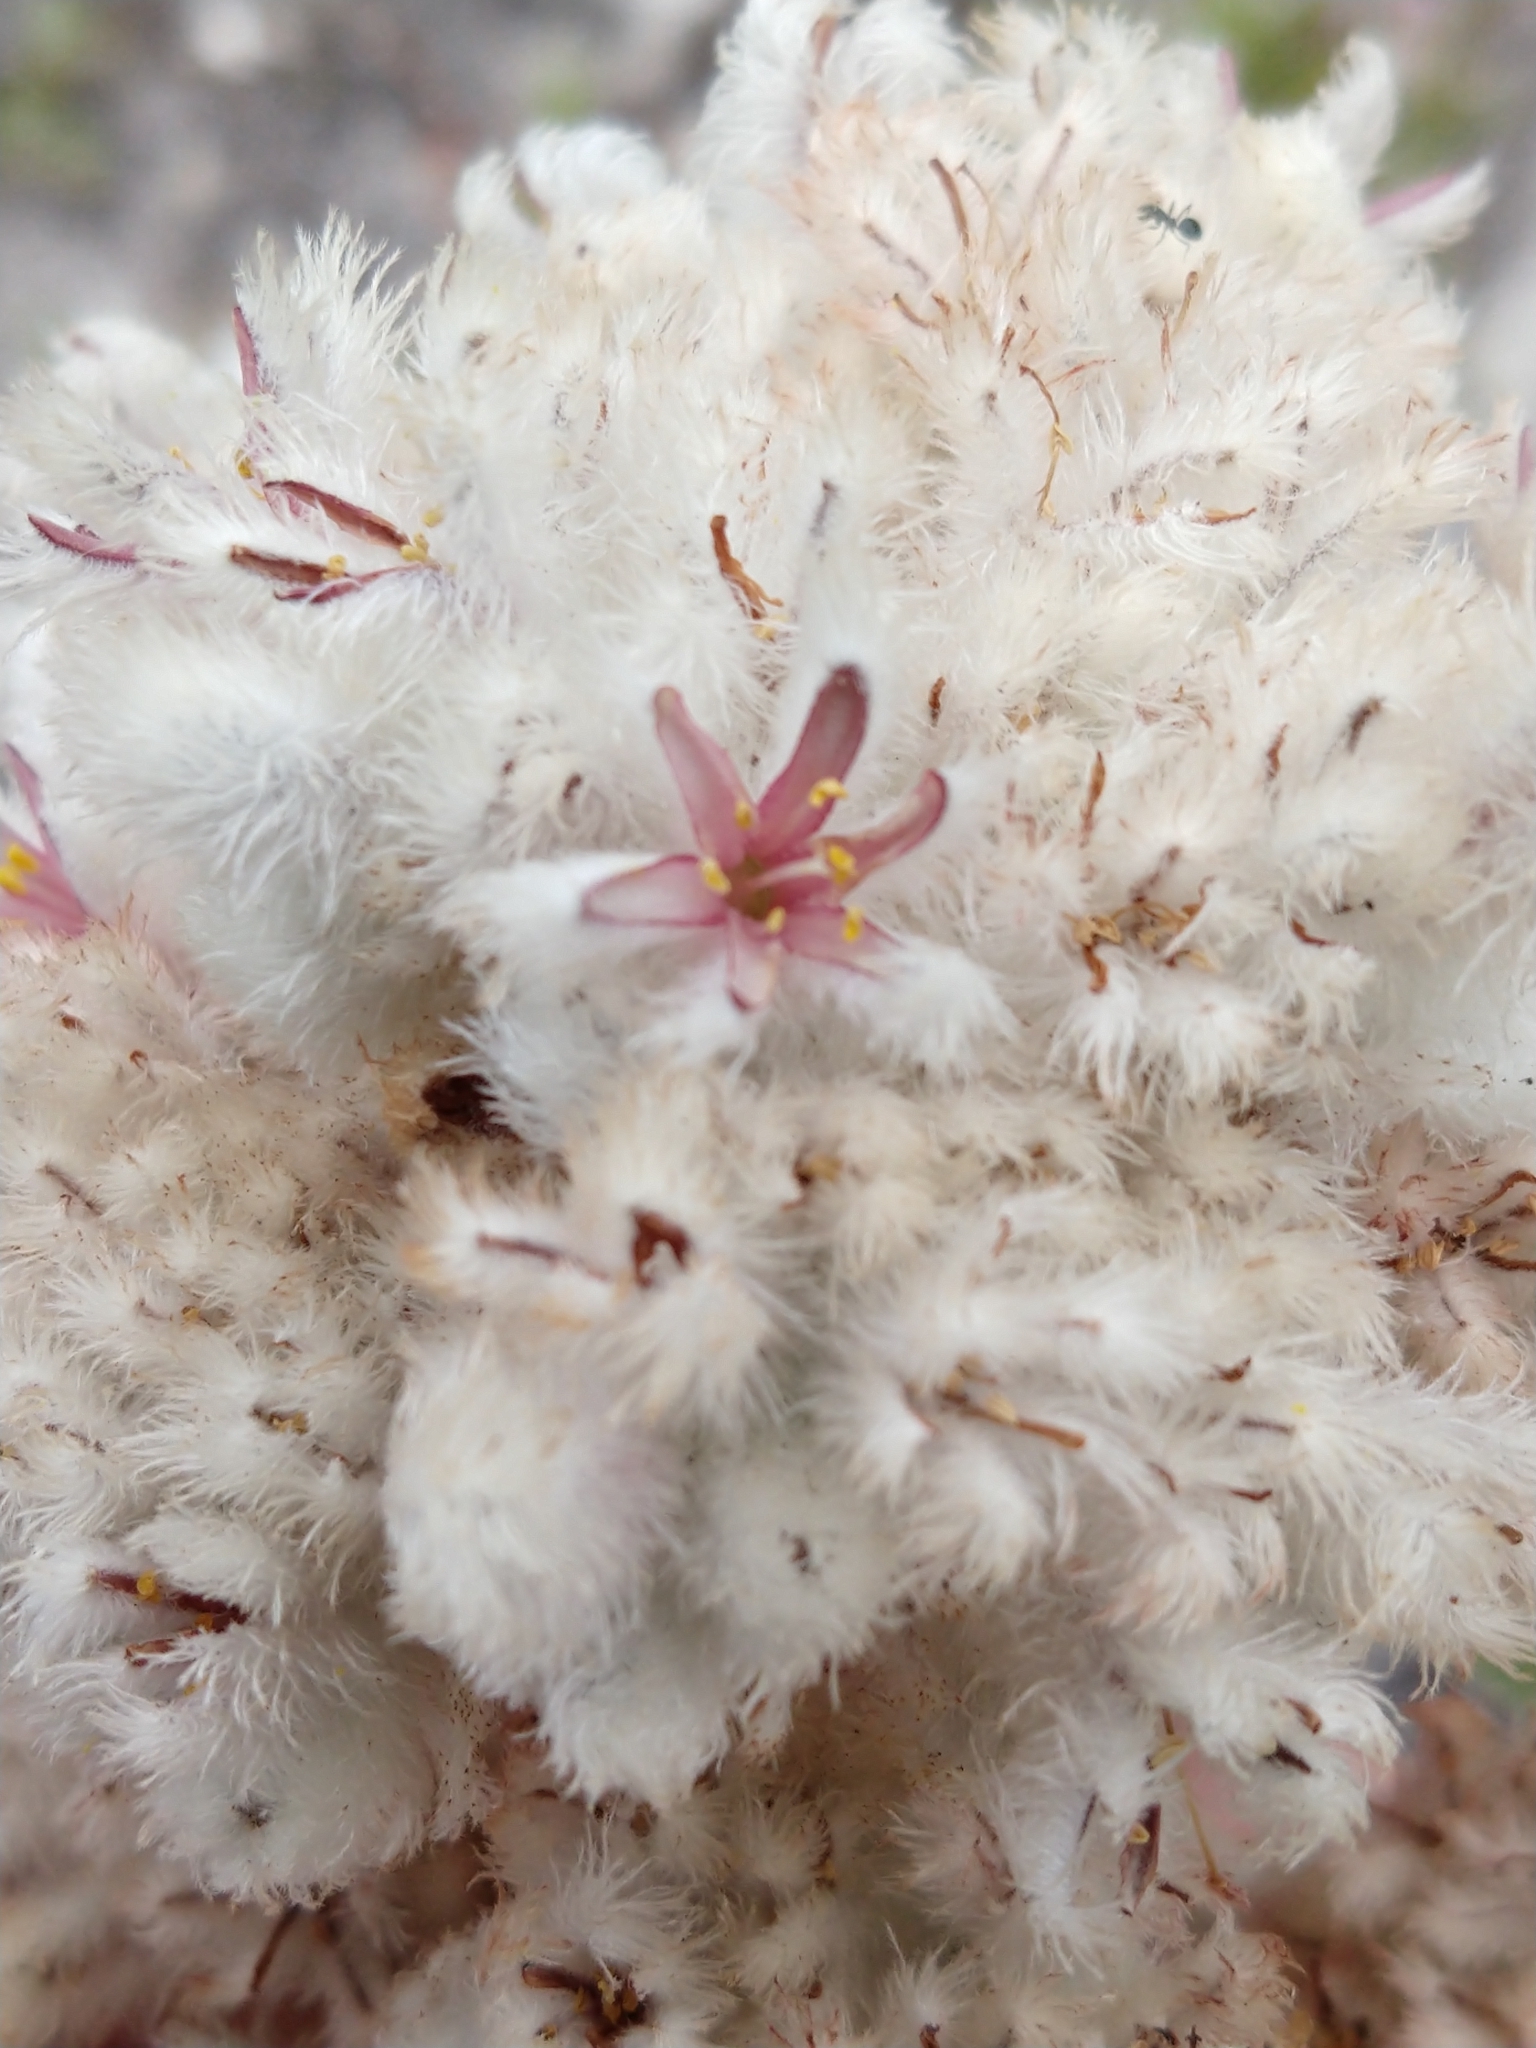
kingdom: Plantae
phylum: Tracheophyta
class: Liliopsida
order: Asparagales
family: Lanariaceae
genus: Lanaria
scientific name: Lanaria lanata
